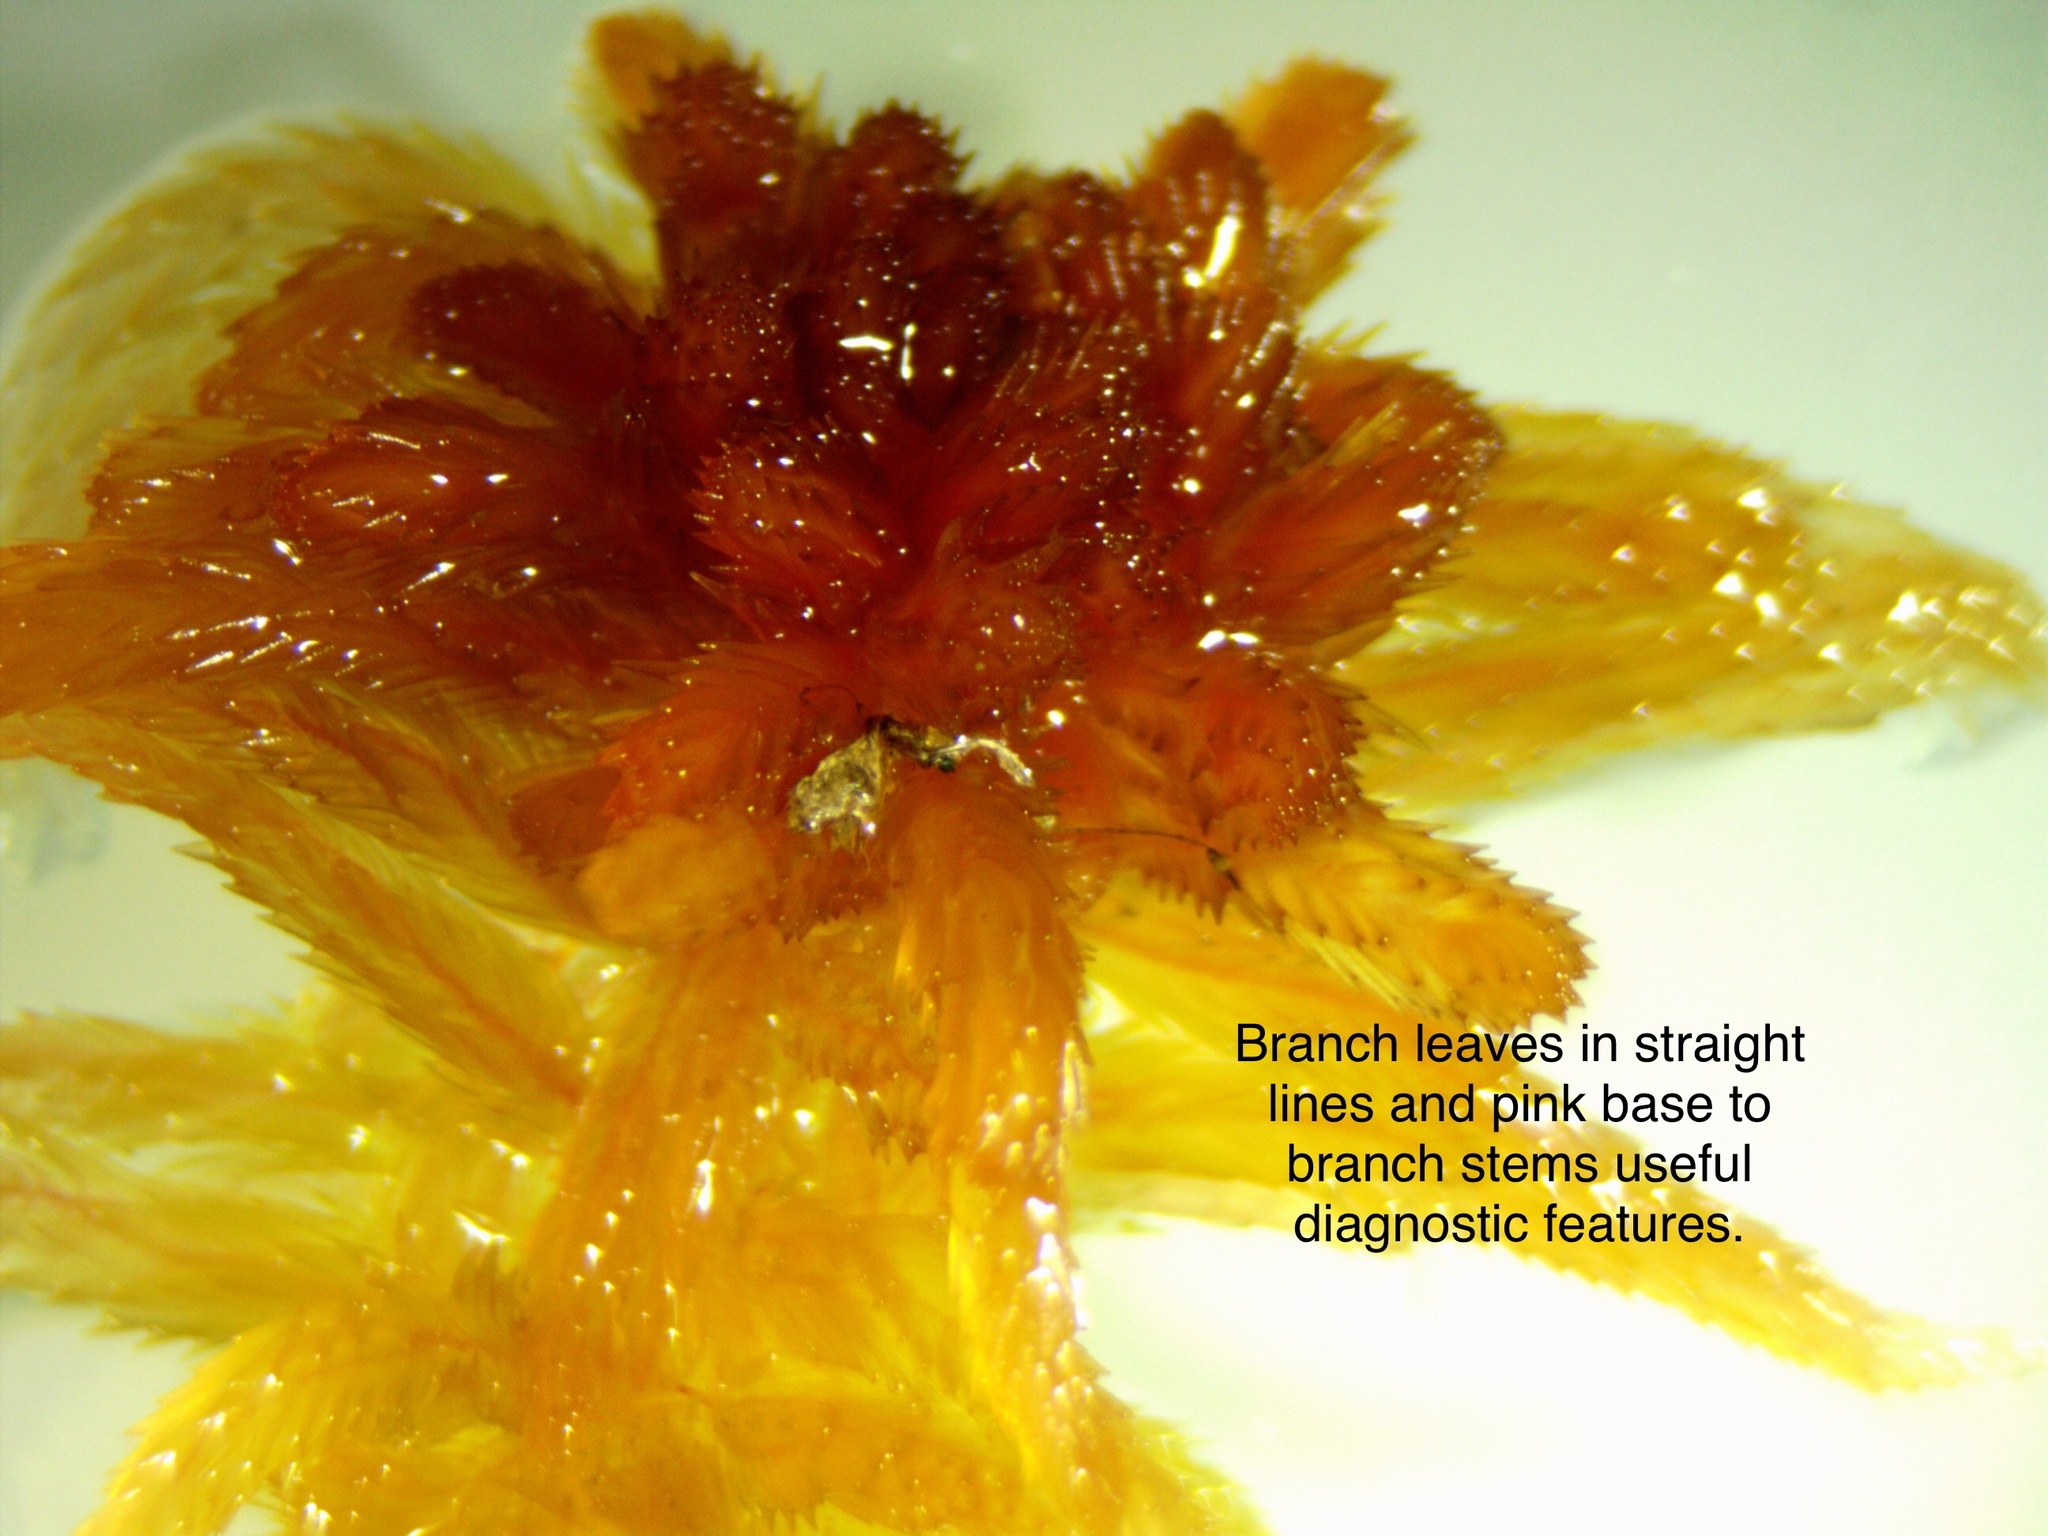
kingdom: Plantae
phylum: Bryophyta
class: Sphagnopsida
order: Sphagnales
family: Sphagnaceae
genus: Sphagnum
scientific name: Sphagnum fallax
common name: Flat-top peat moss
